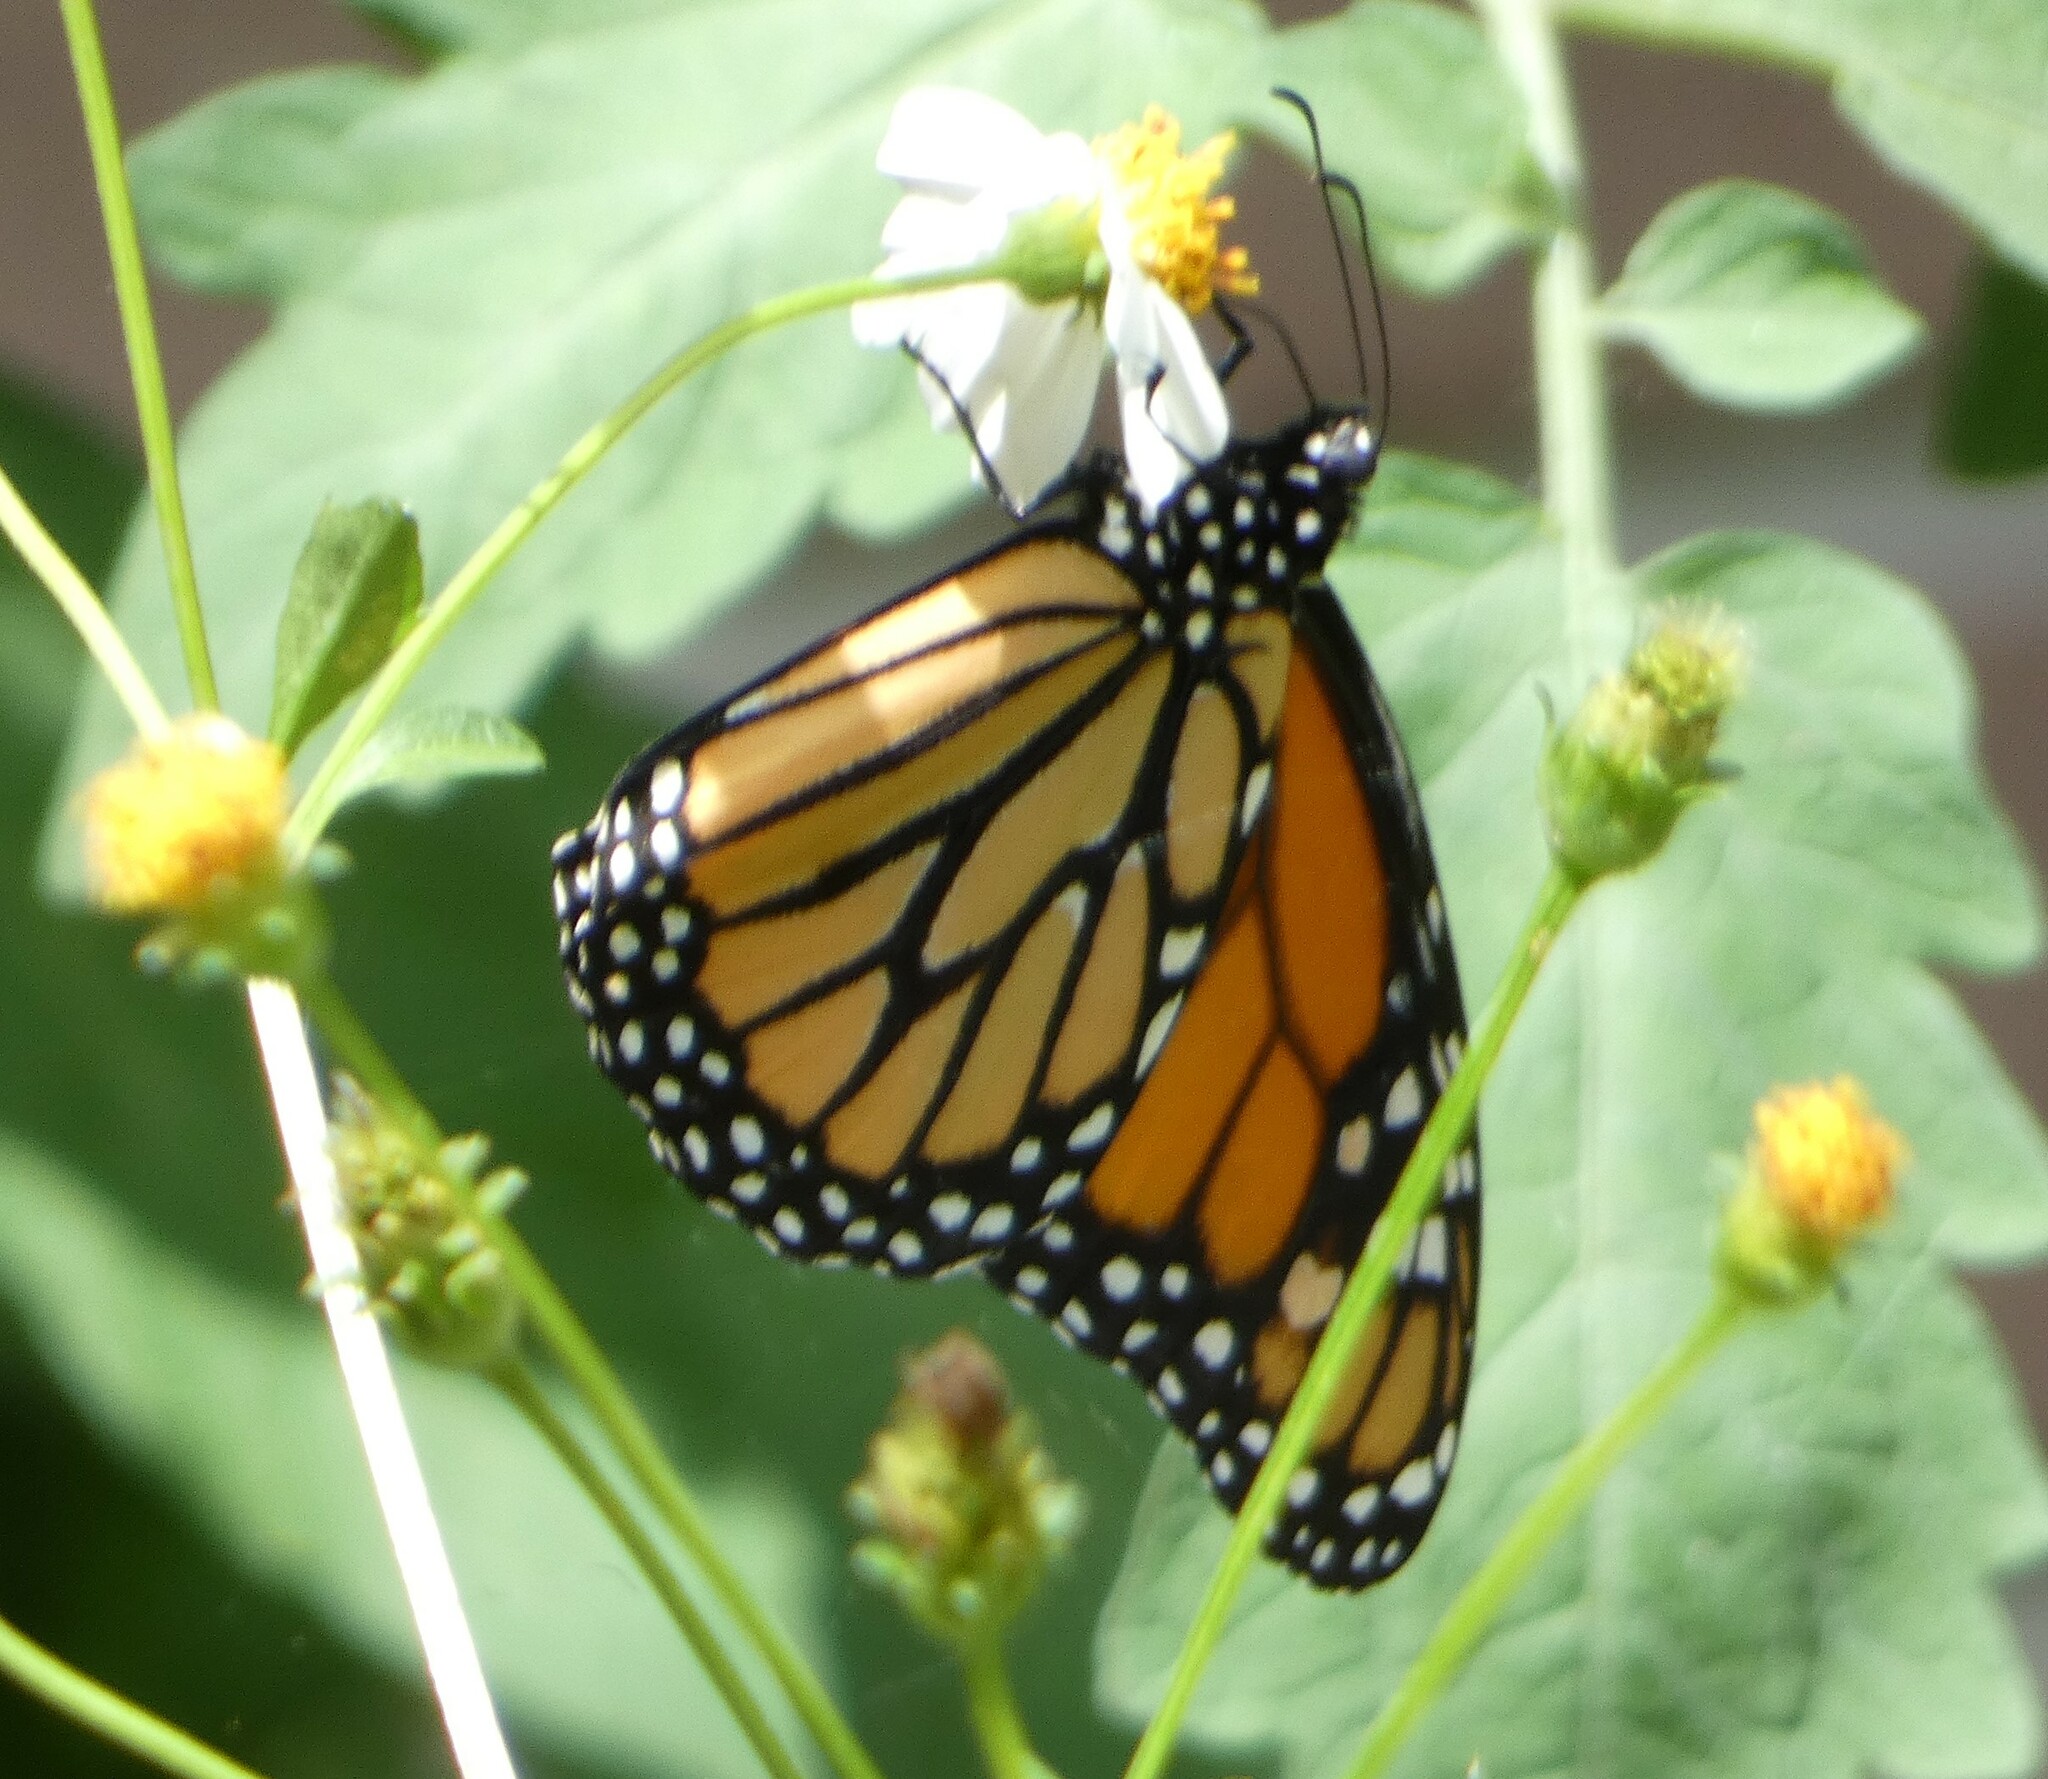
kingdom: Animalia
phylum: Arthropoda
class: Insecta
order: Lepidoptera
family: Nymphalidae
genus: Danaus
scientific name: Danaus plexippus
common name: Monarch
